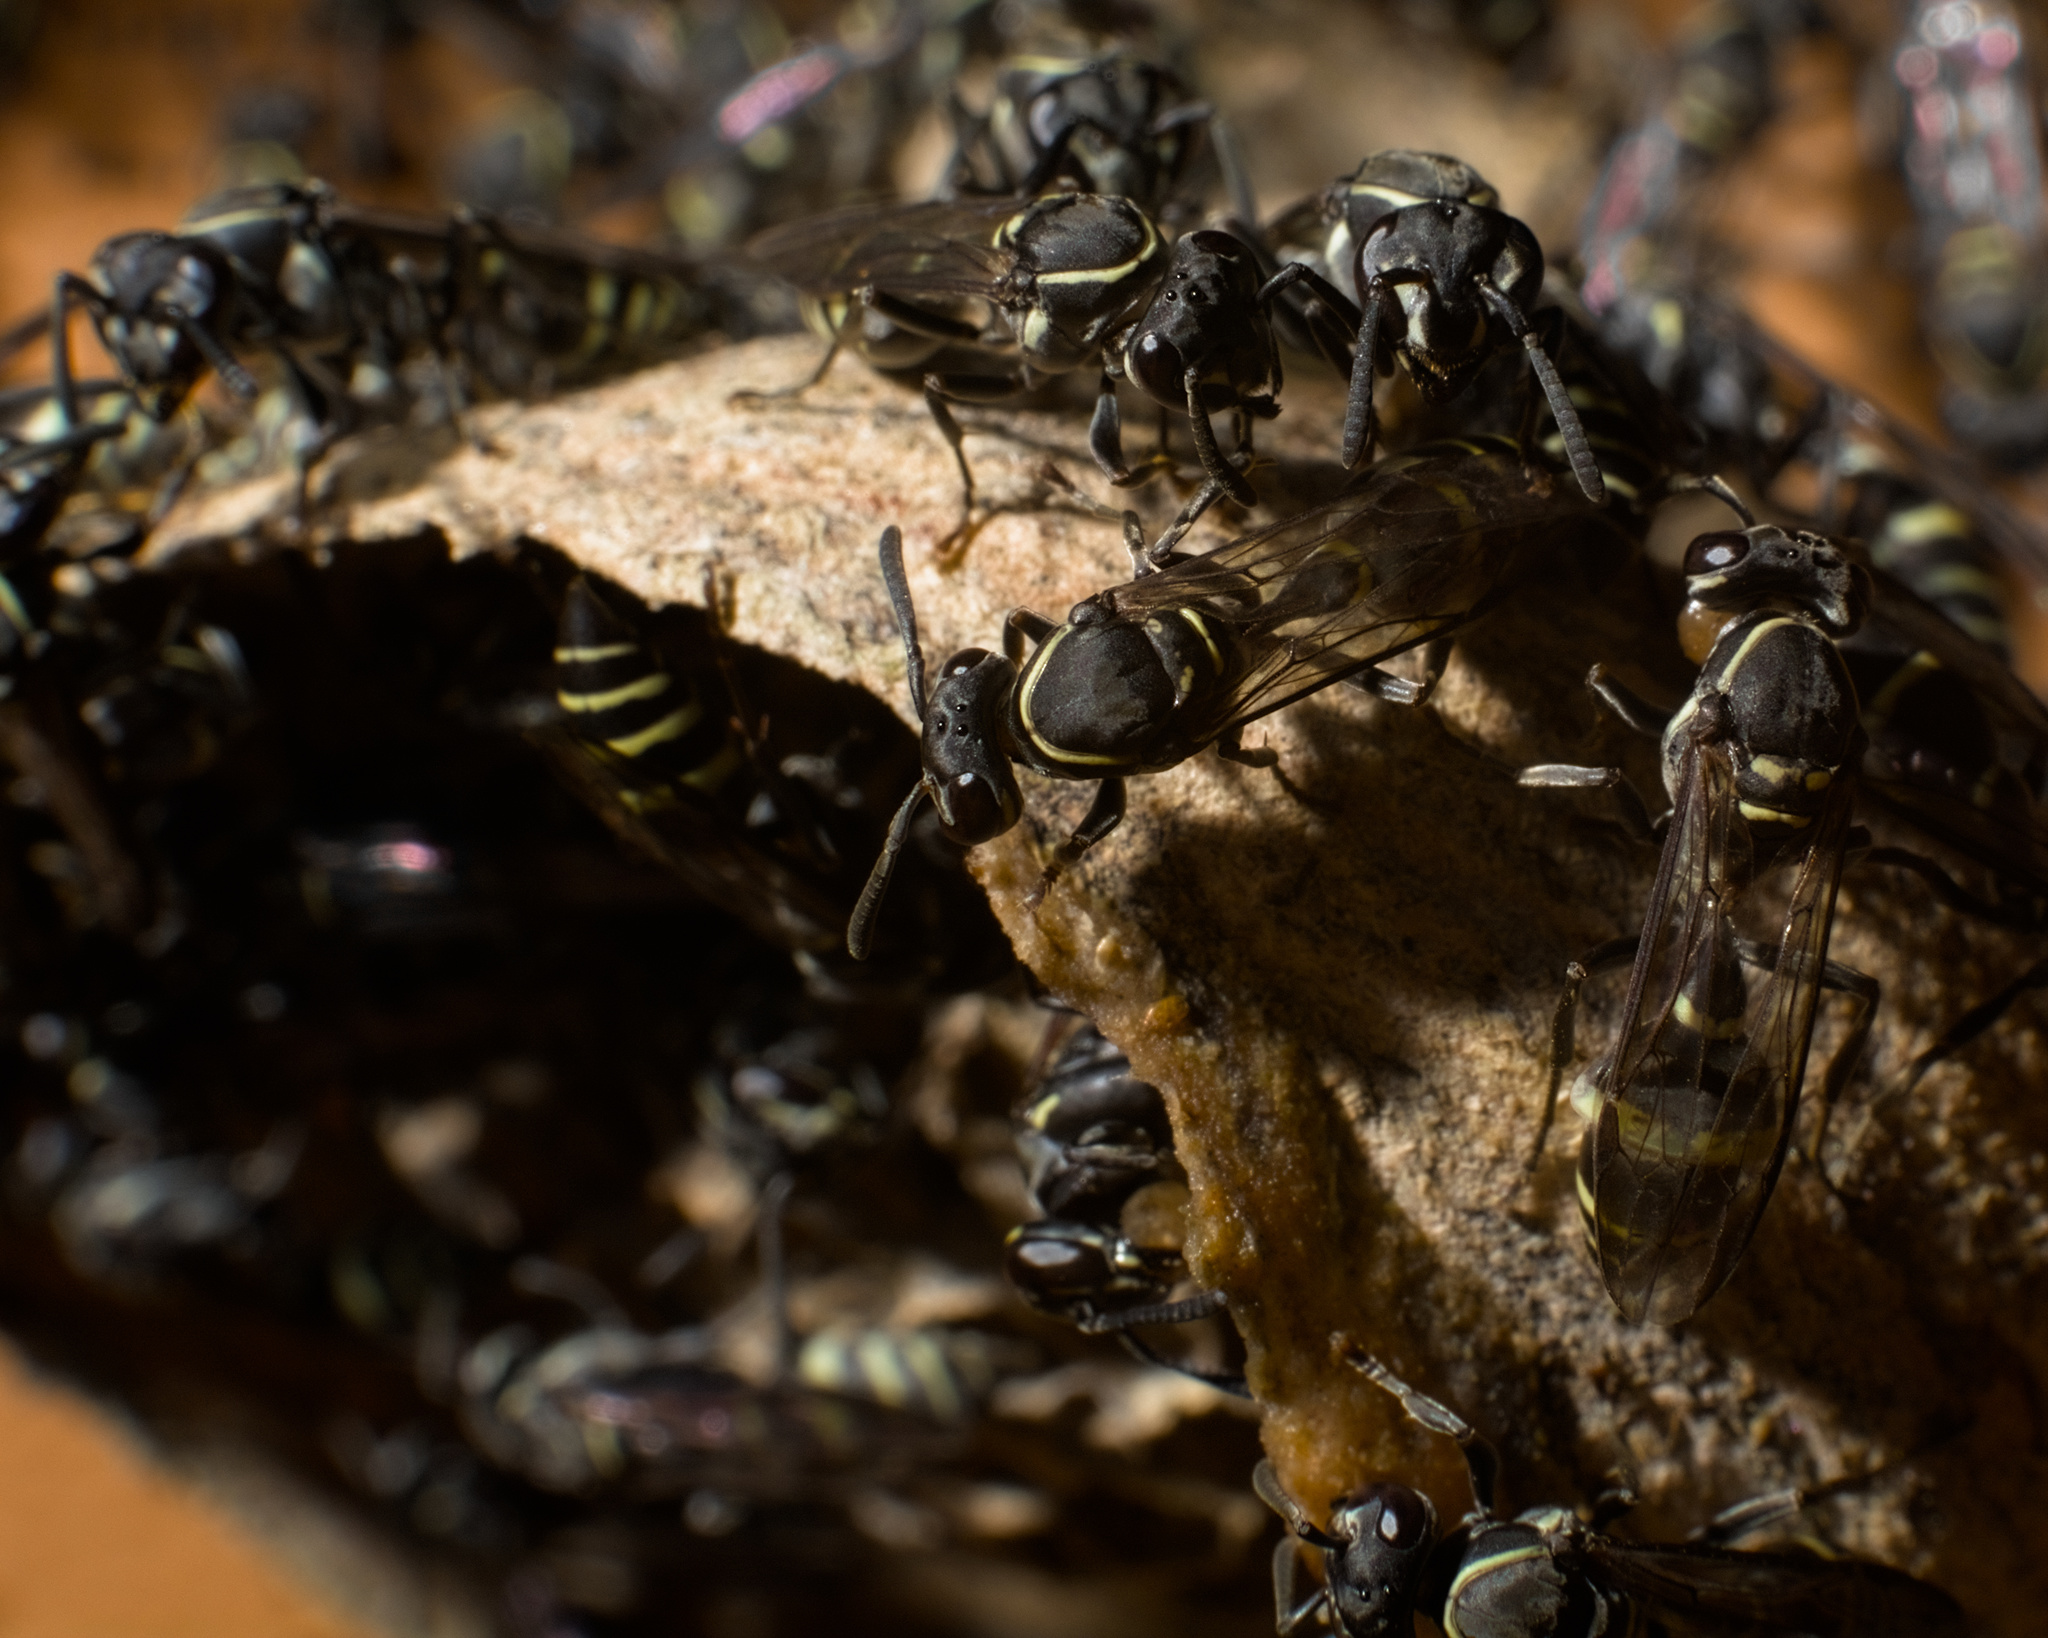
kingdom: Animalia
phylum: Arthropoda
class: Insecta
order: Hymenoptera
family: Eumenidae
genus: Polybia
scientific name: Polybia occidentalis
